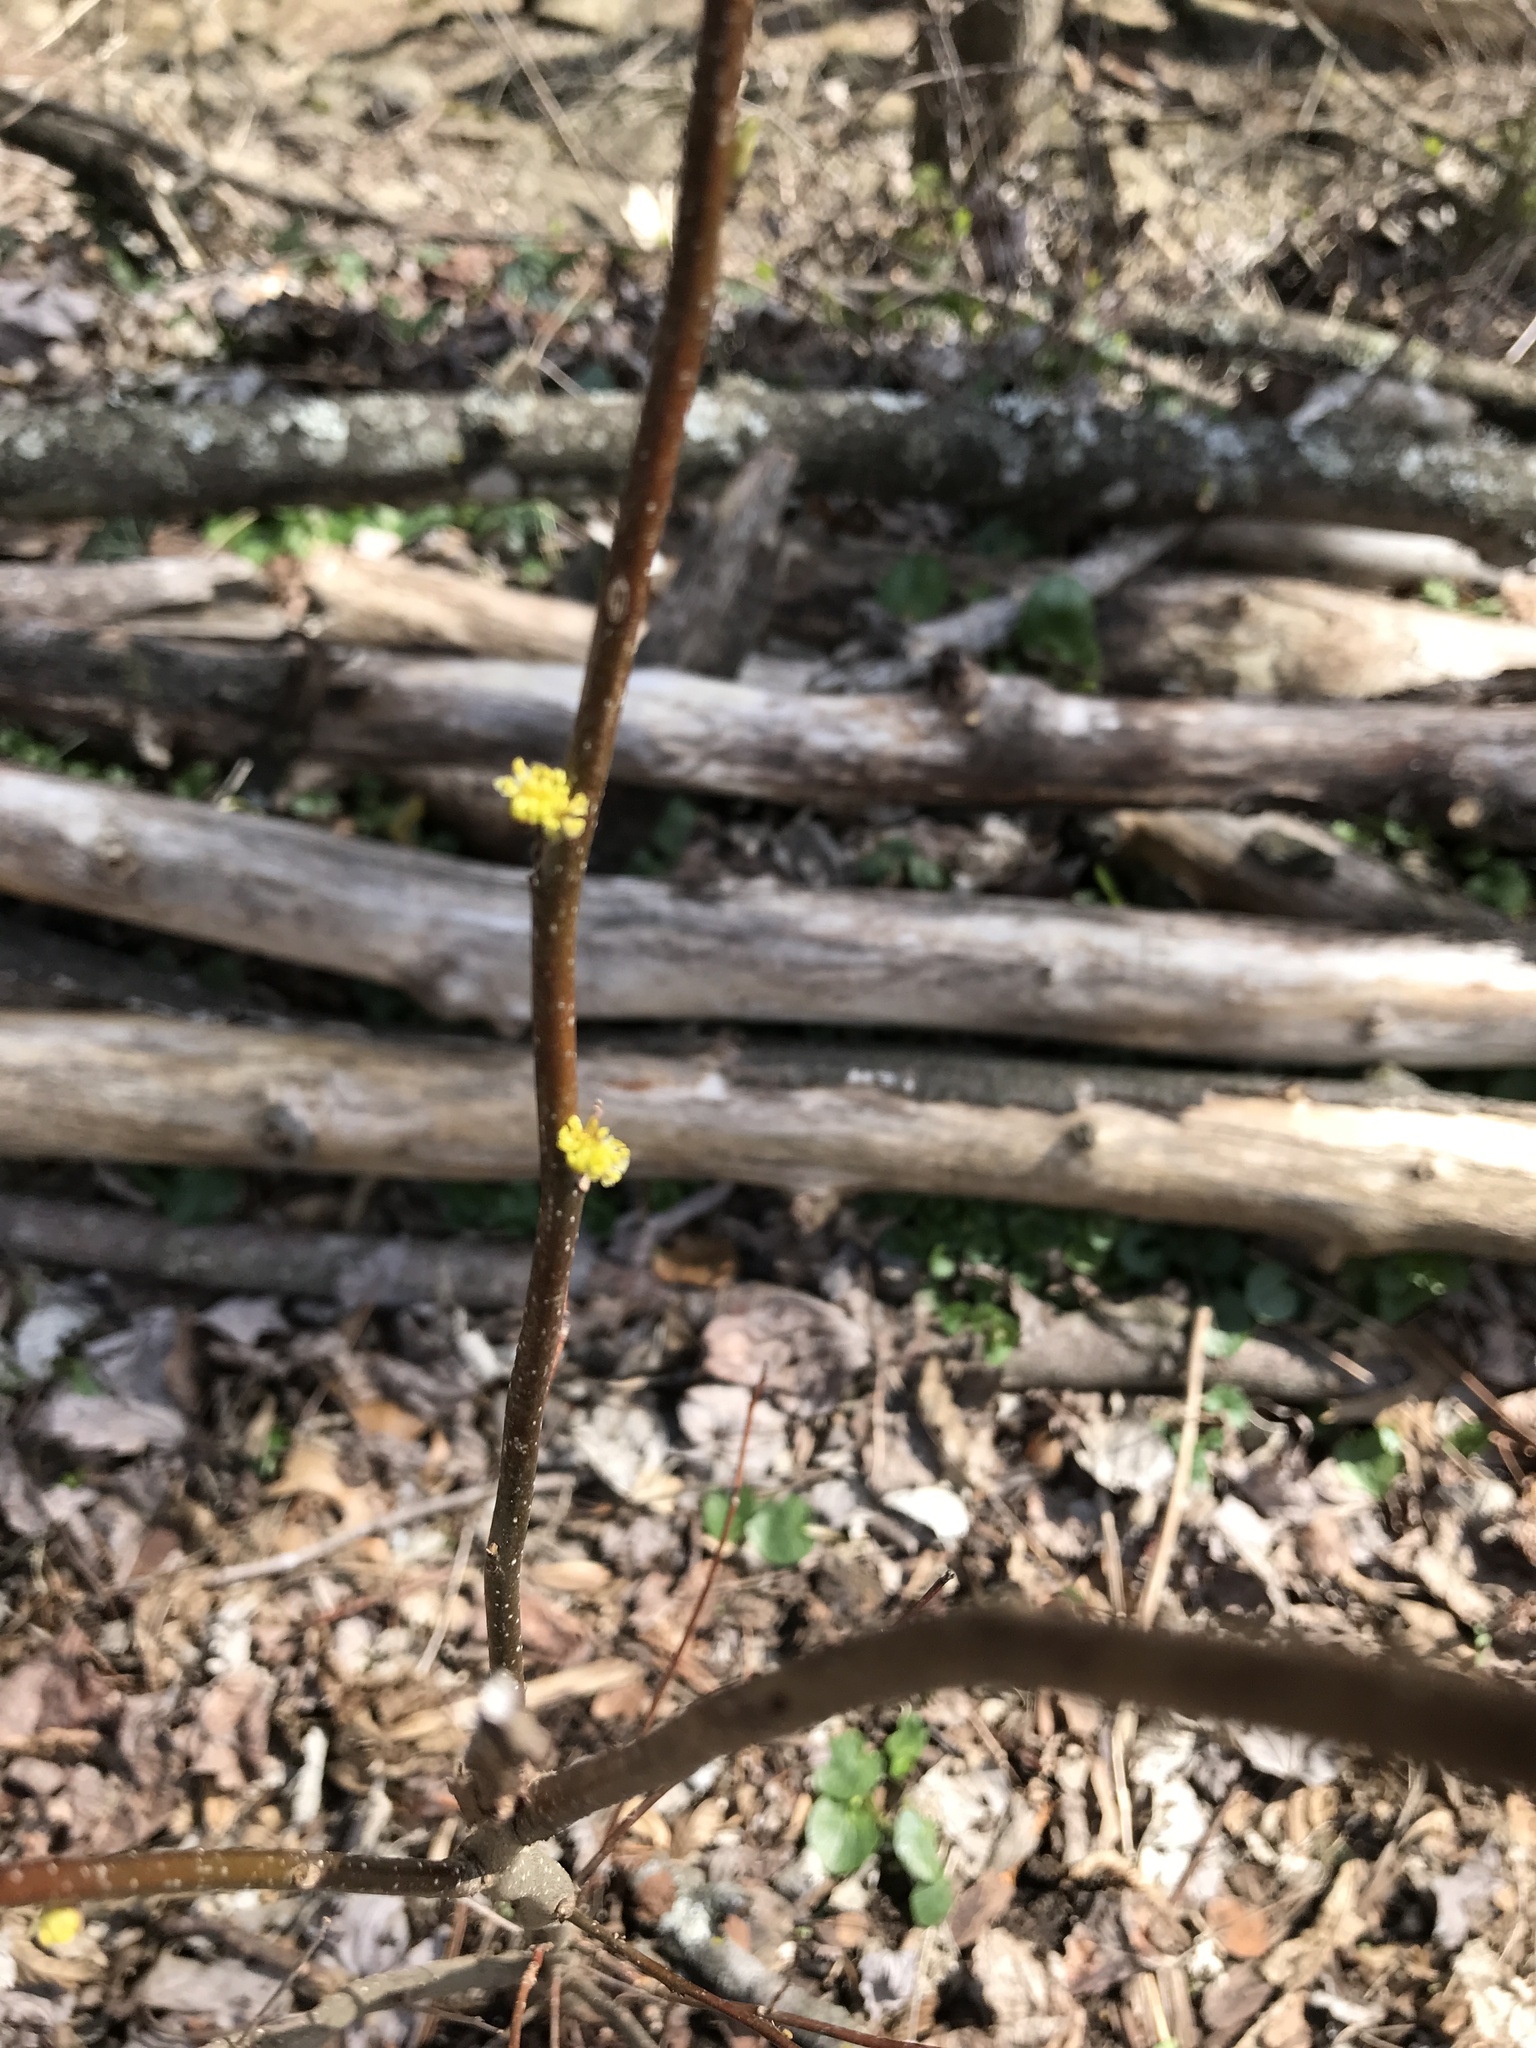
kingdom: Plantae
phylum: Tracheophyta
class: Magnoliopsida
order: Laurales
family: Lauraceae
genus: Lindera
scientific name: Lindera benzoin
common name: Spicebush
